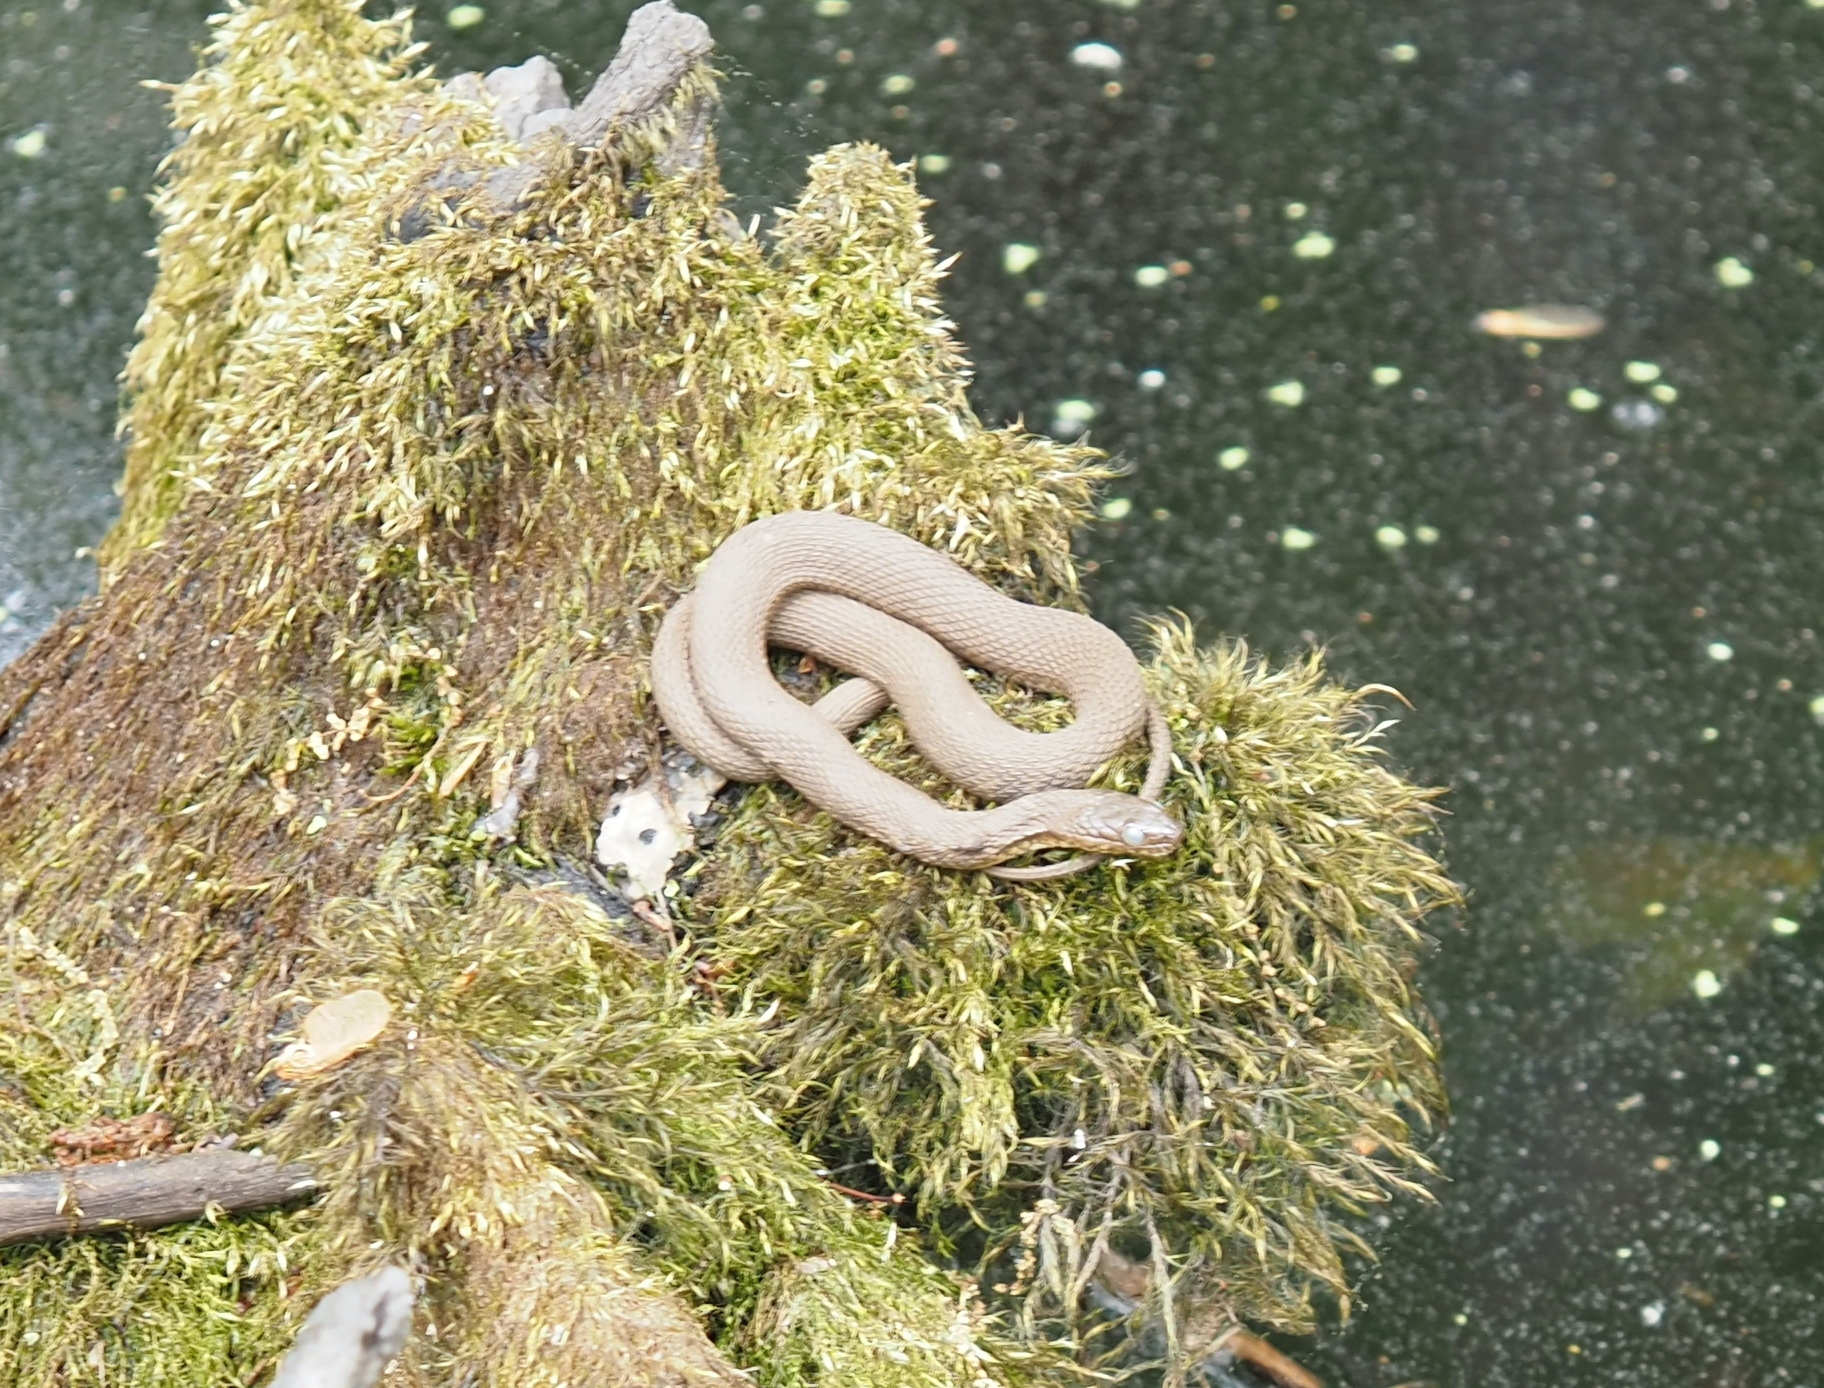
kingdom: Animalia
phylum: Chordata
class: Squamata
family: Colubridae
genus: Nerodia
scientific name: Nerodia sipedon
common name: Northern water snake
